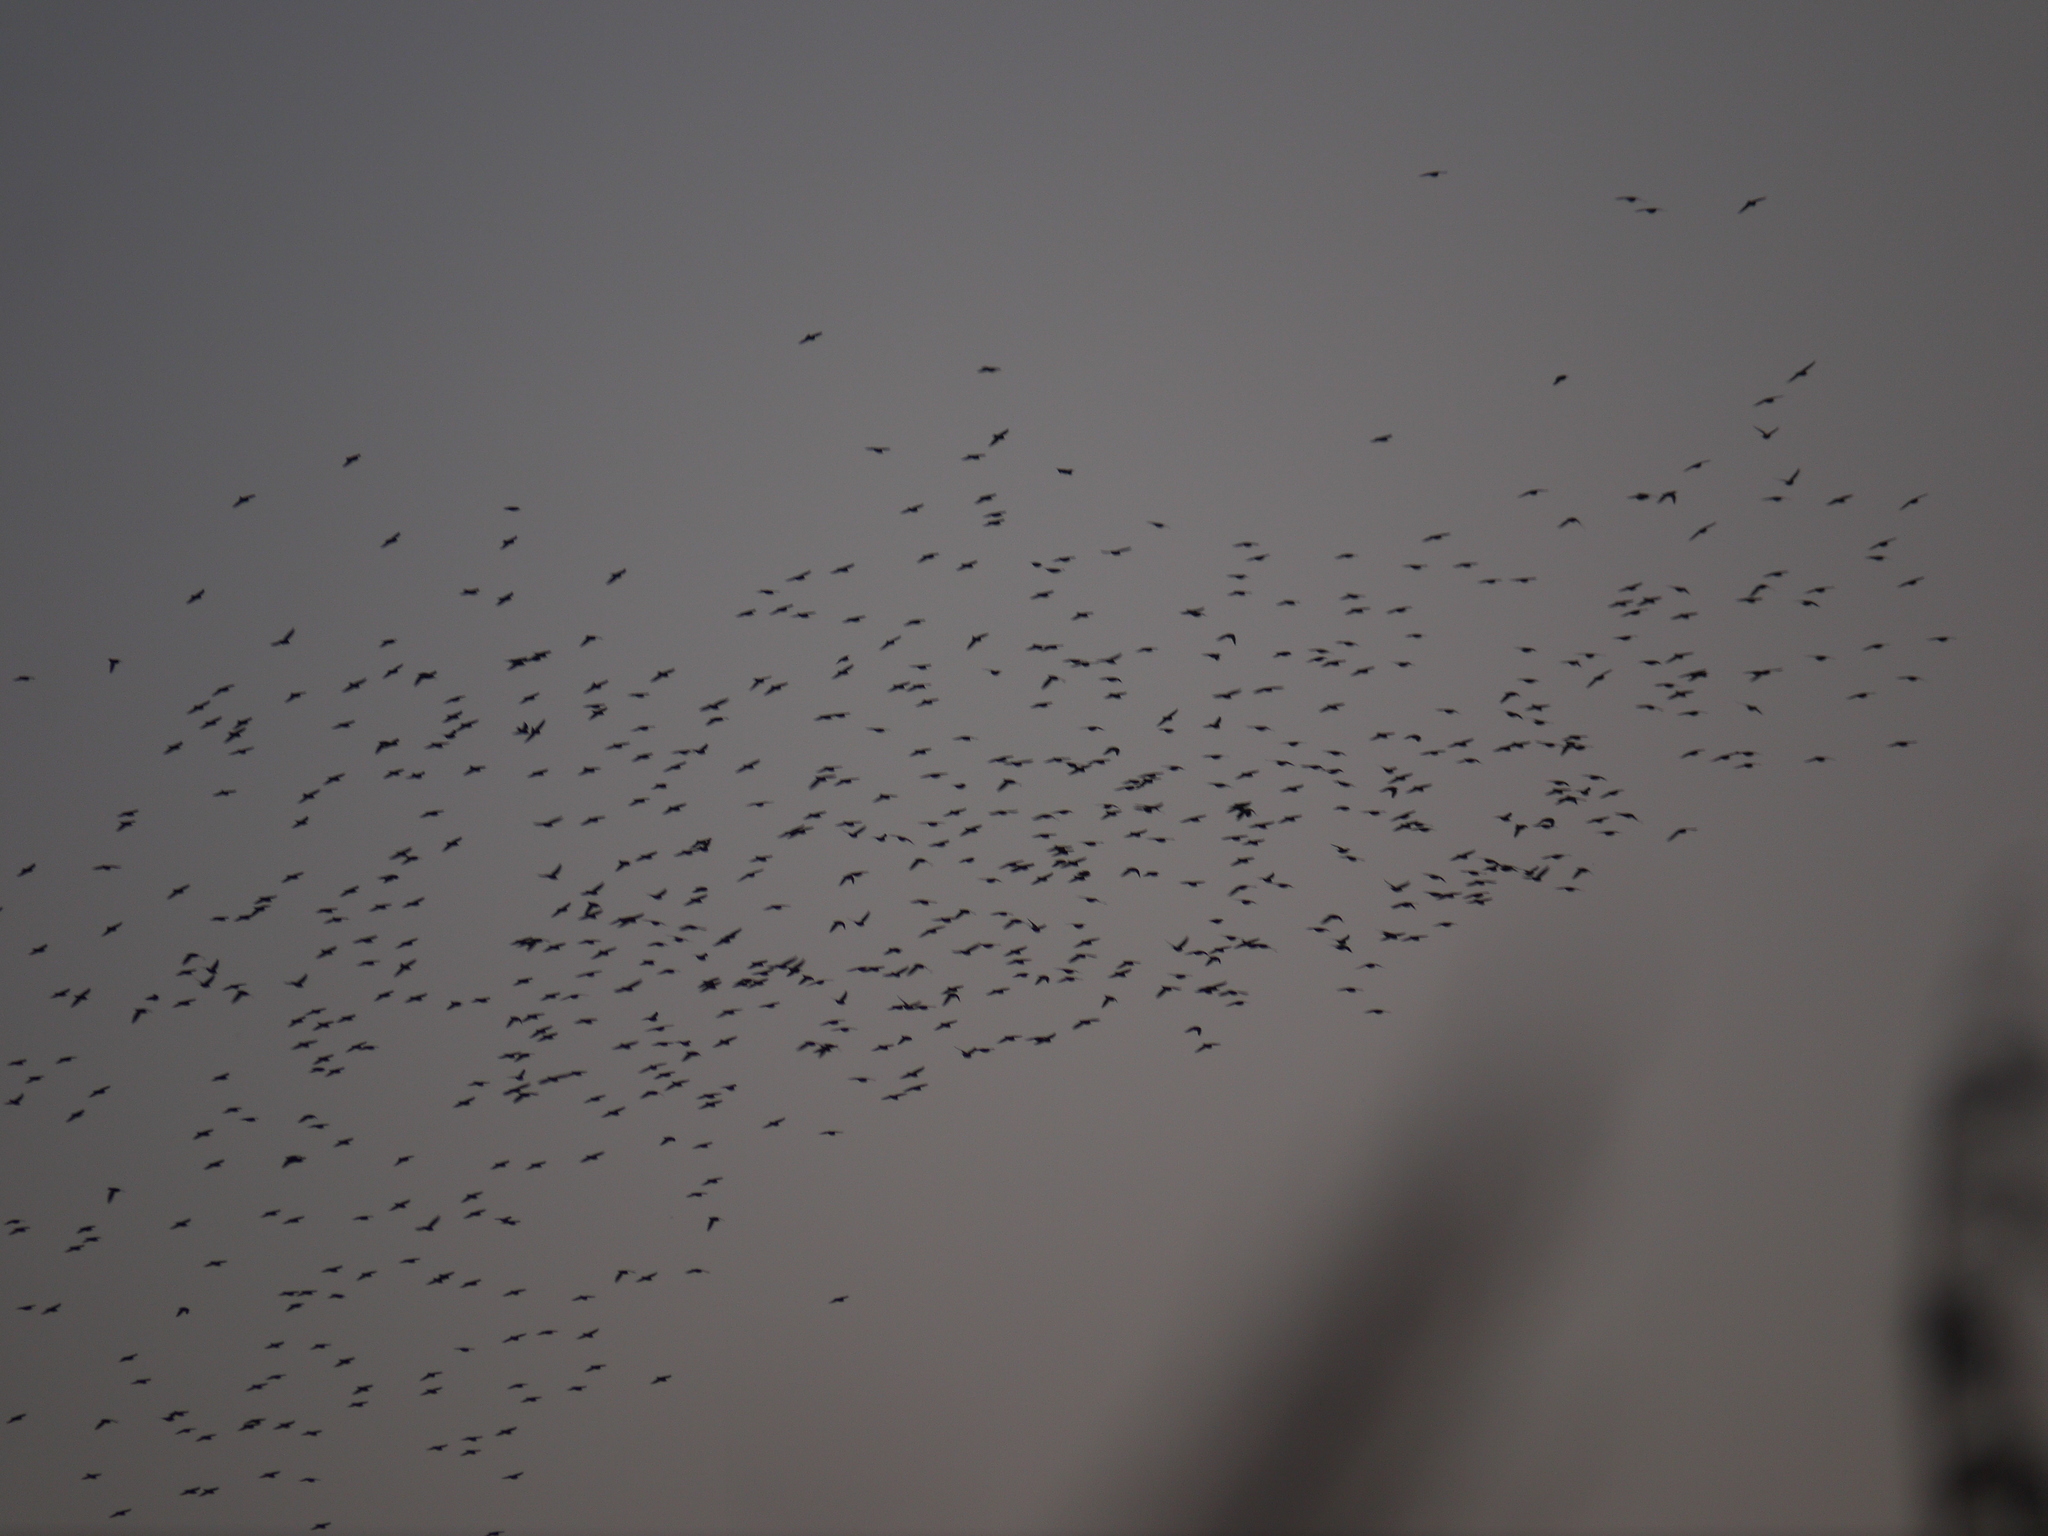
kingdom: Animalia
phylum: Chordata
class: Aves
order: Passeriformes
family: Sturnidae
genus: Sturnus
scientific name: Sturnus vulgaris
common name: Common starling
